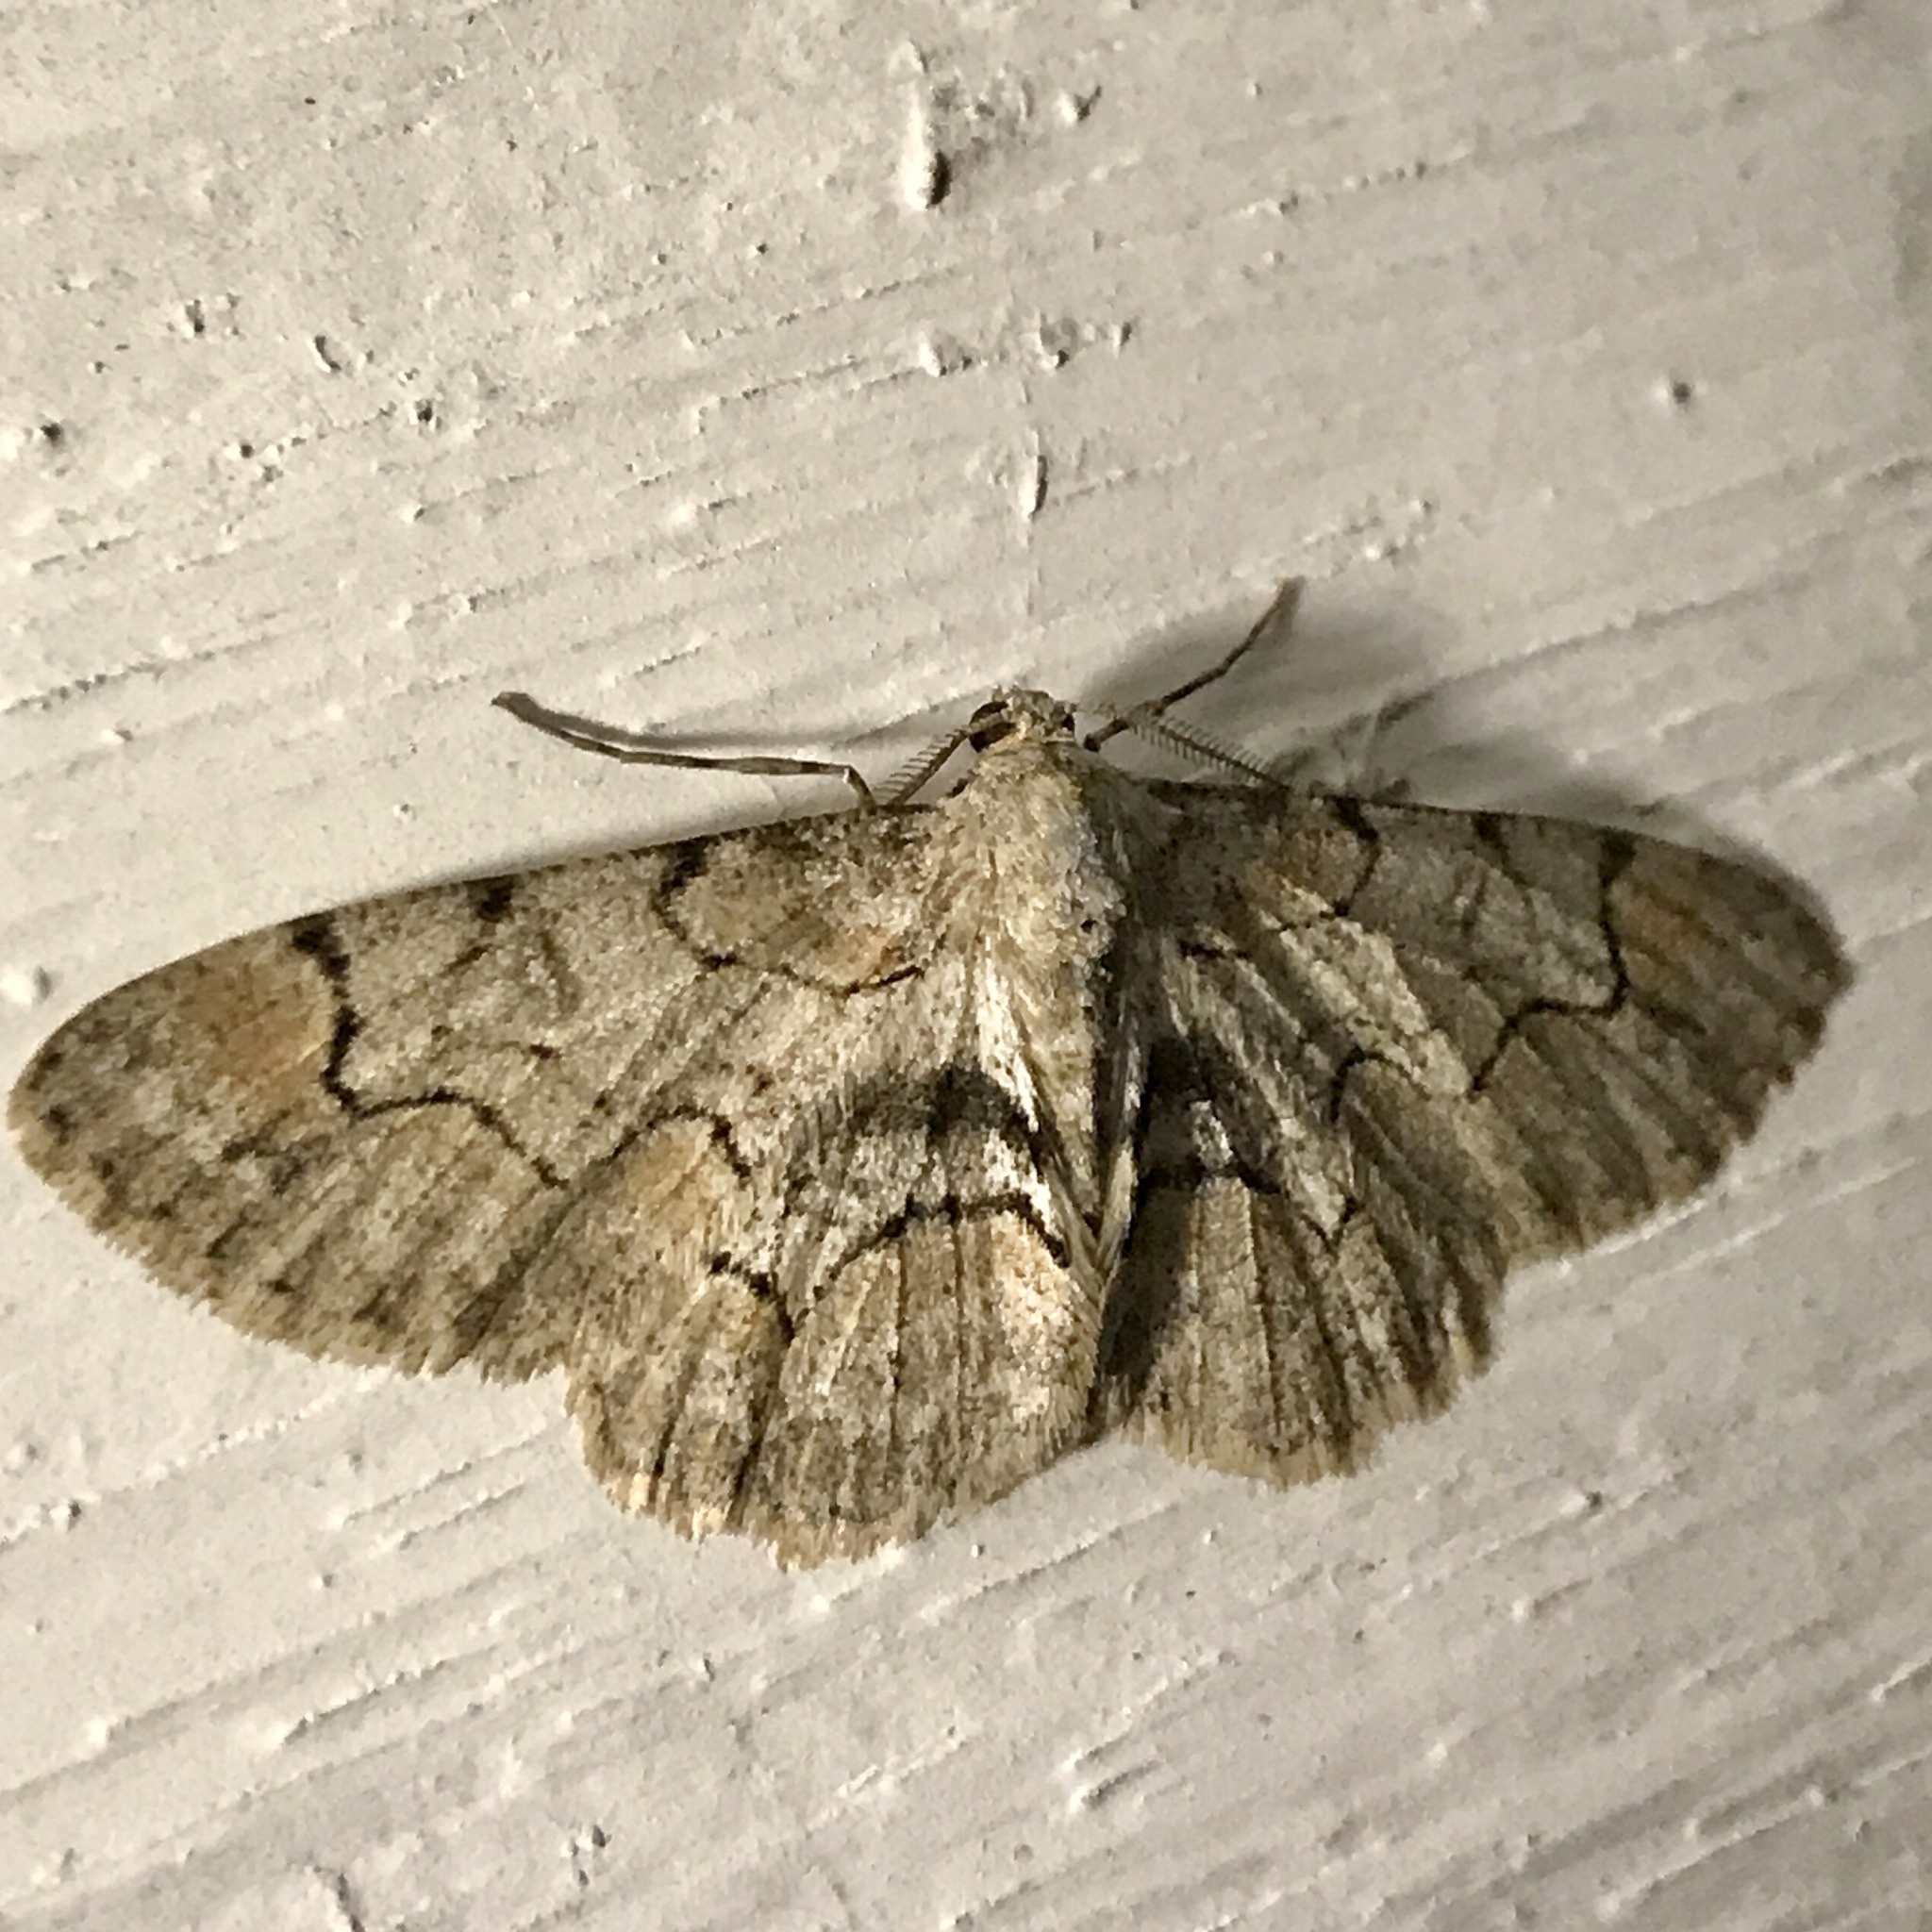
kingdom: Animalia
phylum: Arthropoda
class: Insecta
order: Lepidoptera
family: Geometridae
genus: Iridopsis
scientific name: Iridopsis larvaria
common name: Bent-line gray
